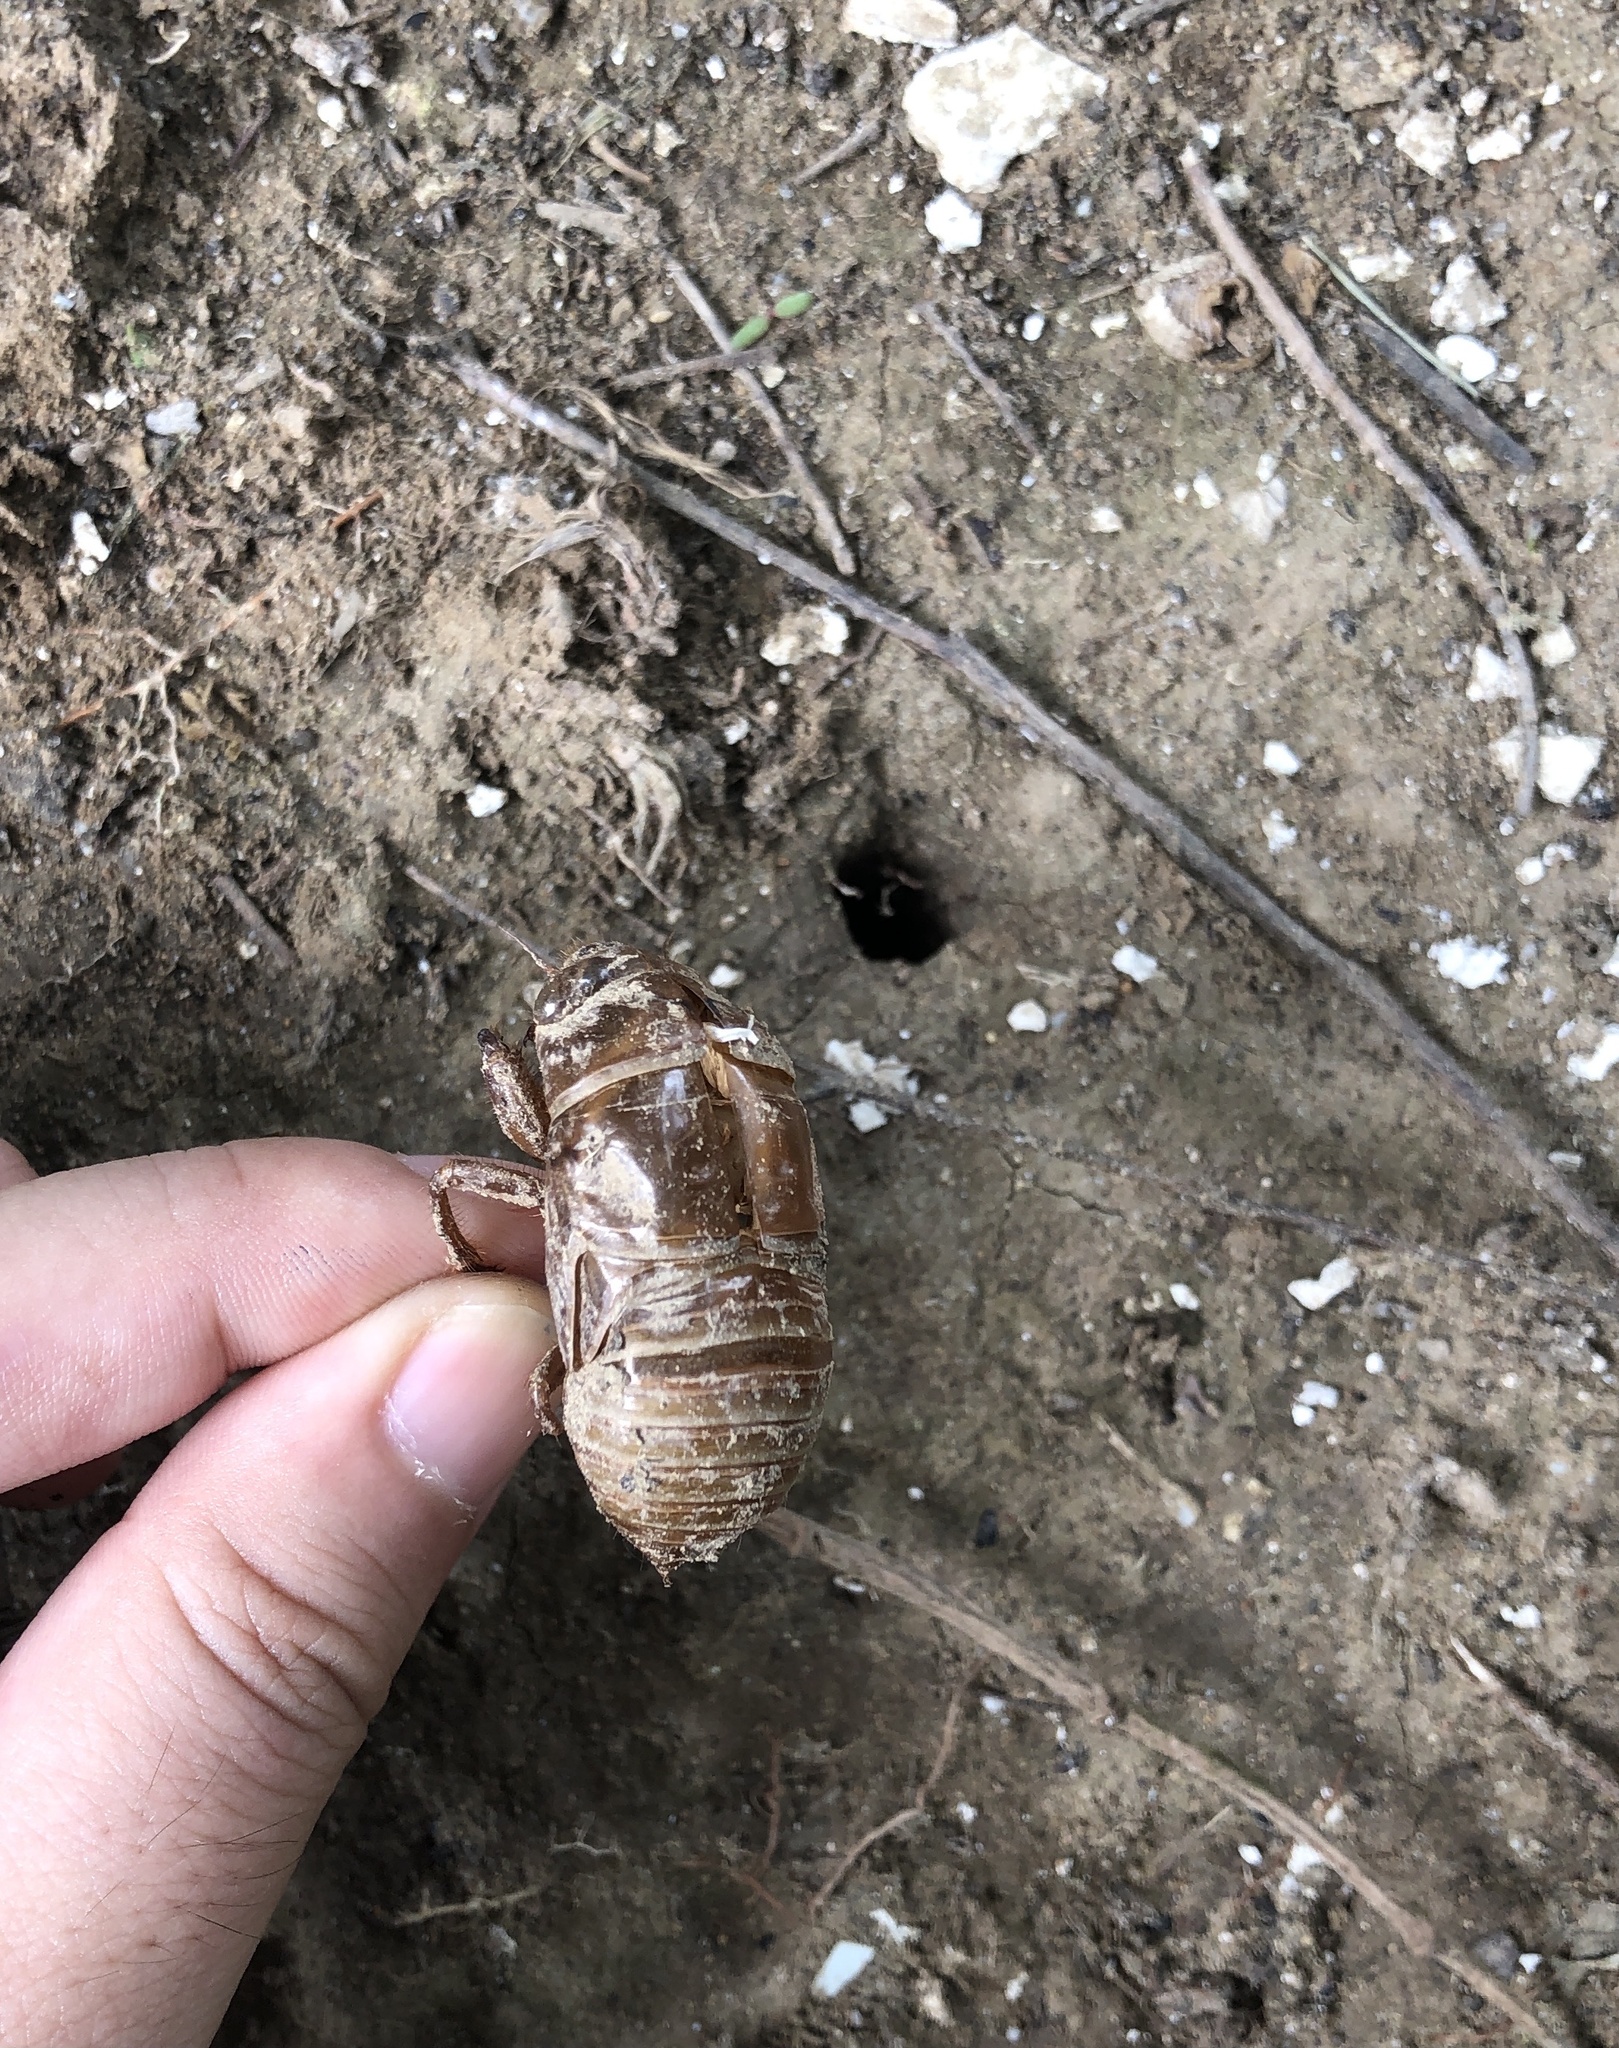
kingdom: Animalia
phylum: Arthropoda
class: Insecta
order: Hemiptera
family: Cicadidae
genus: Cryptotympana
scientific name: Cryptotympana atrata
